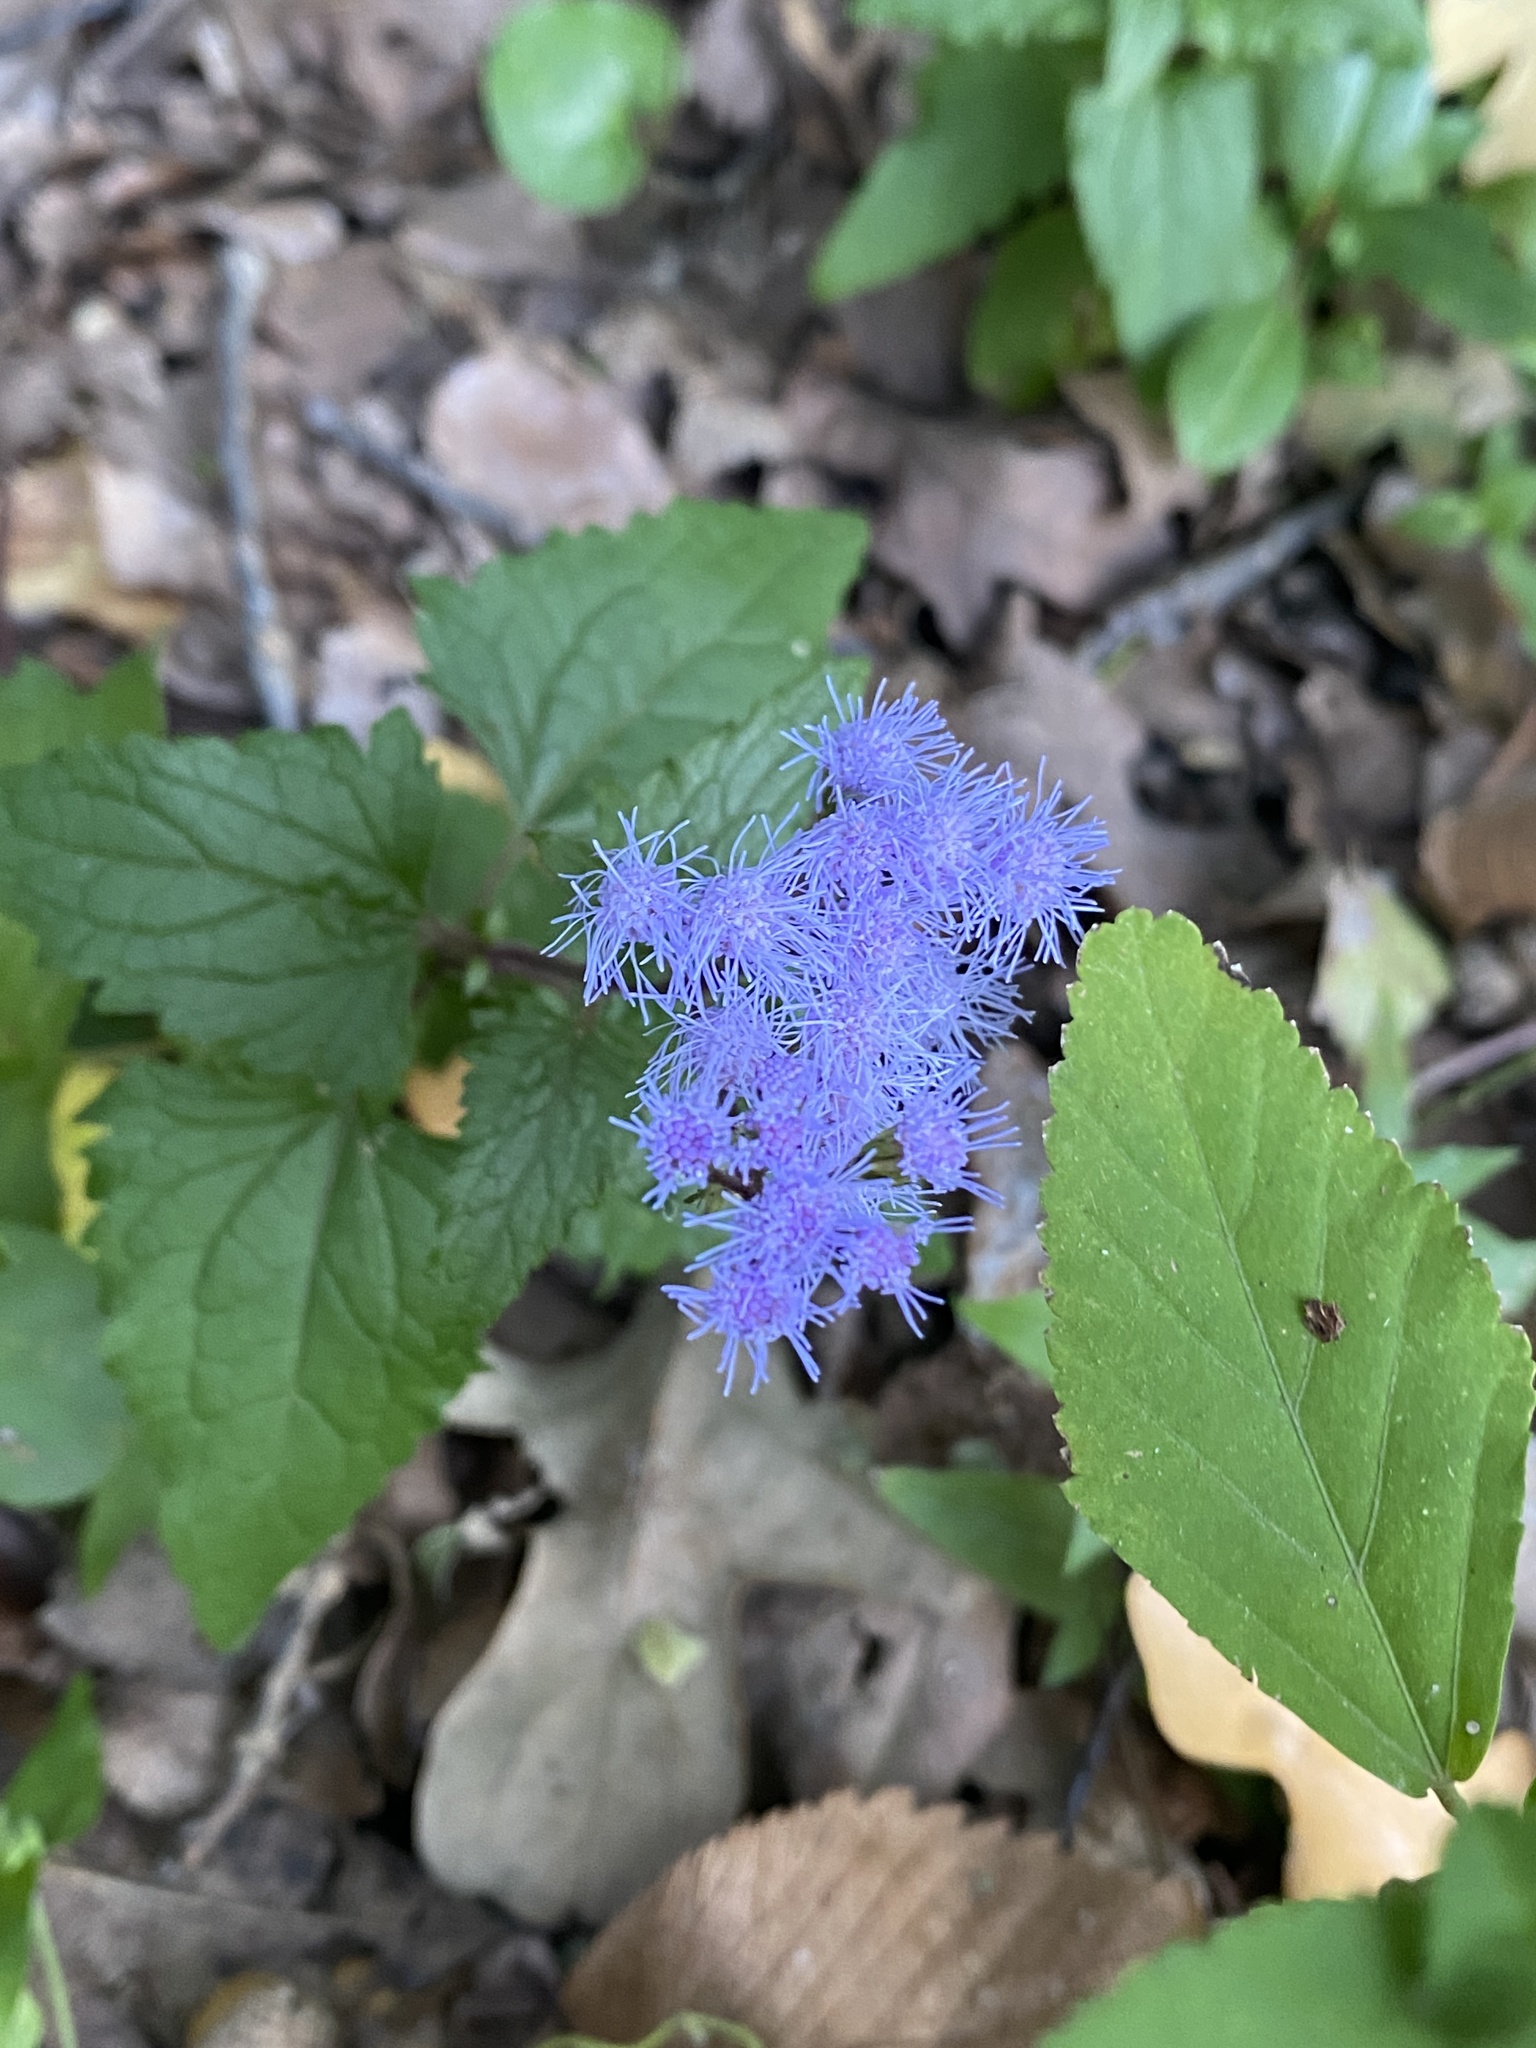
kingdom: Plantae
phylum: Tracheophyta
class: Magnoliopsida
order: Asterales
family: Asteraceae
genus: Conoclinium
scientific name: Conoclinium coelestinum
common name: Blue mistflower
